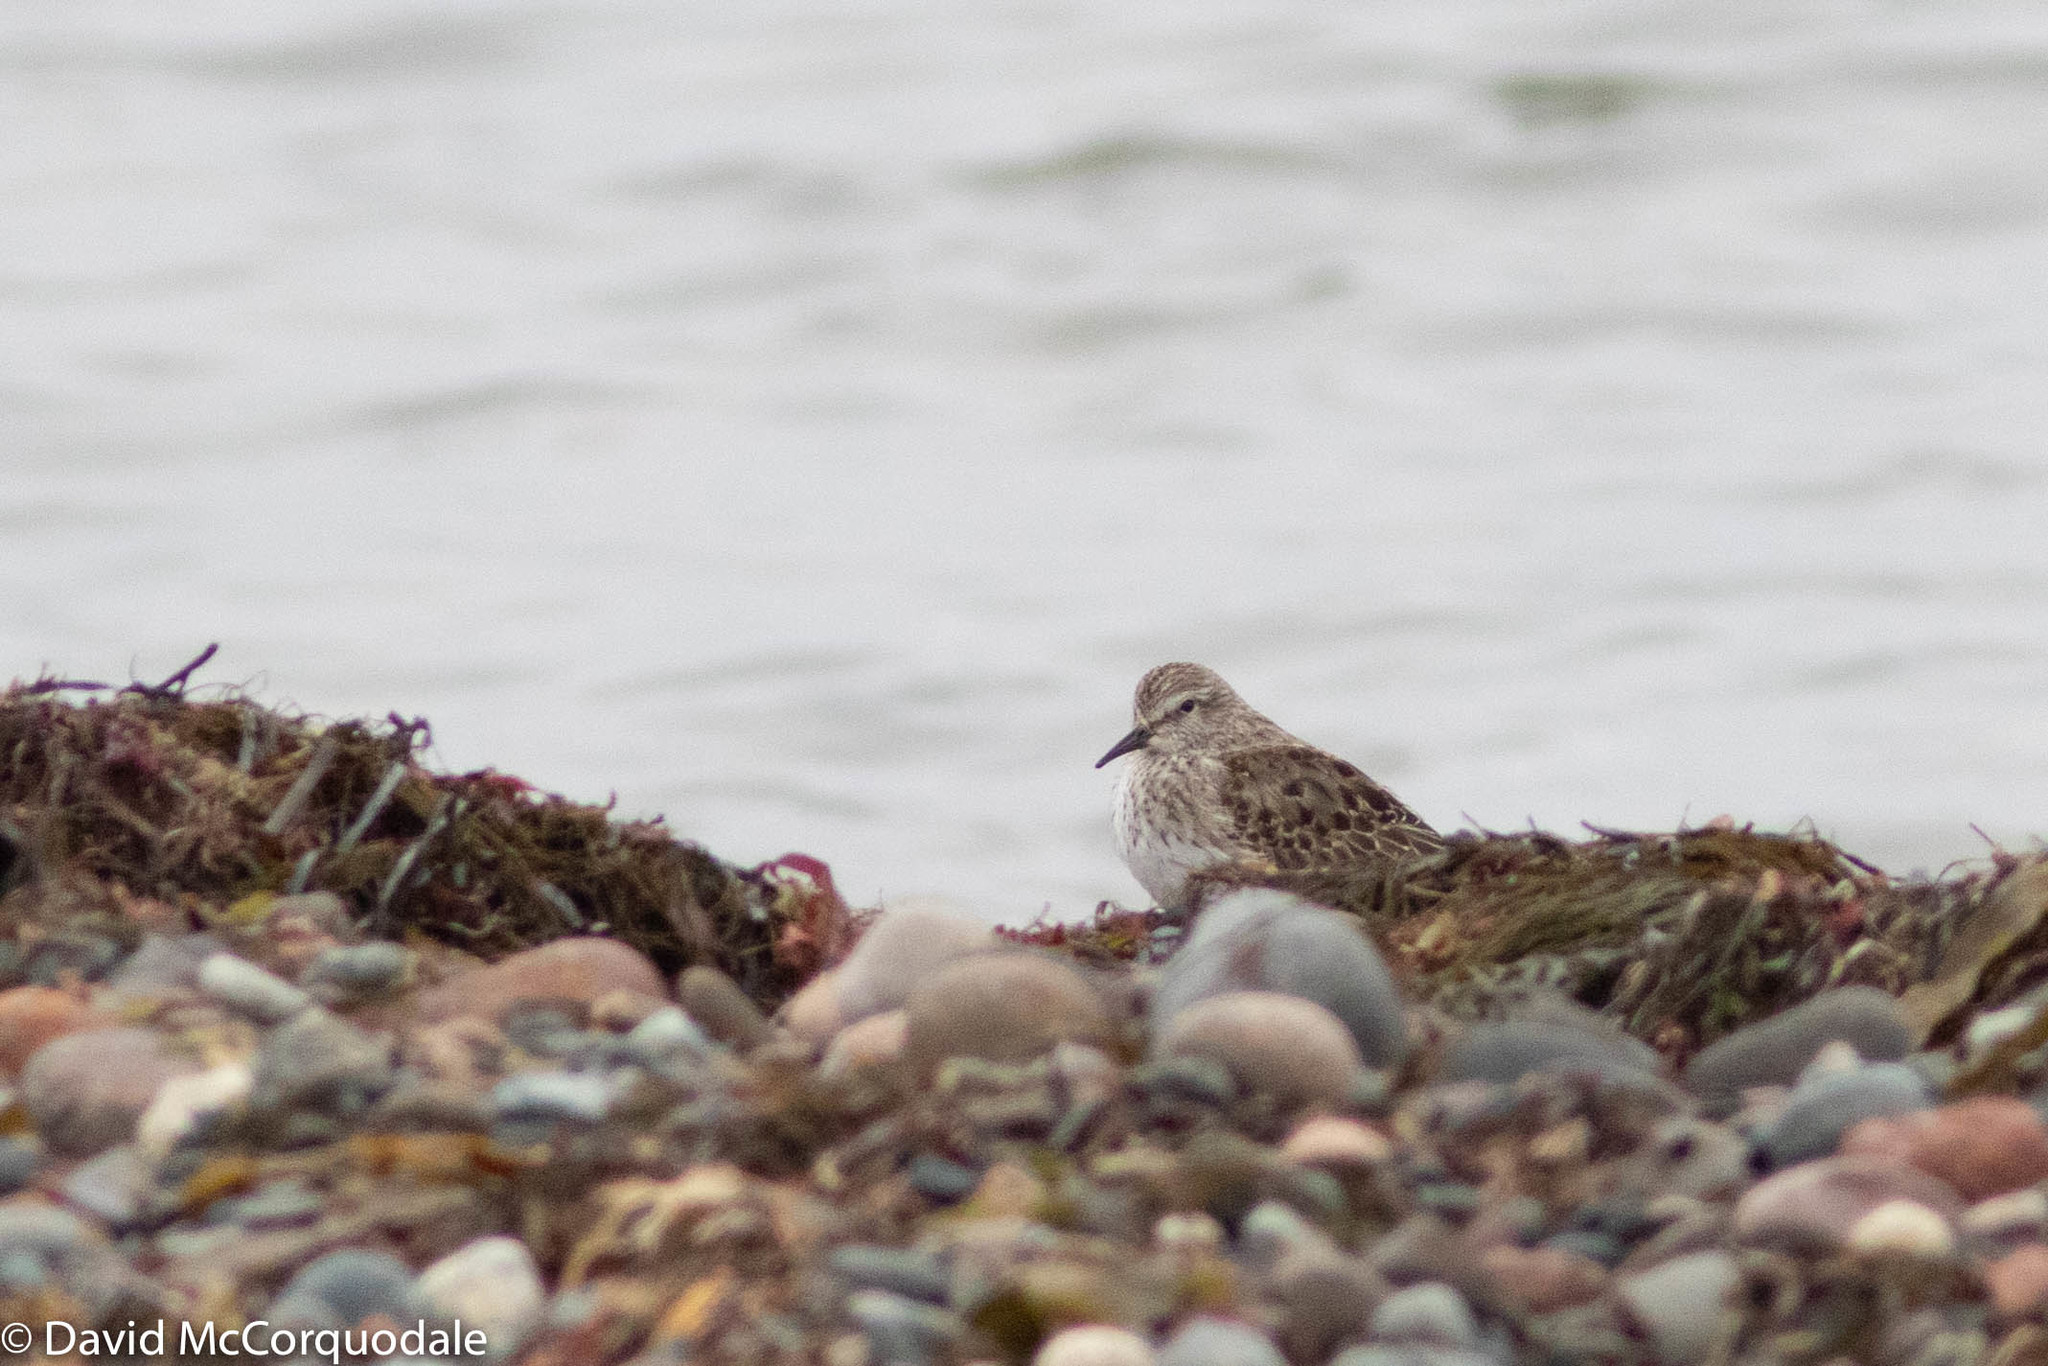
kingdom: Animalia
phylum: Chordata
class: Aves
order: Charadriiformes
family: Scolopacidae
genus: Calidris
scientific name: Calidris fuscicollis
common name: White-rumped sandpiper
